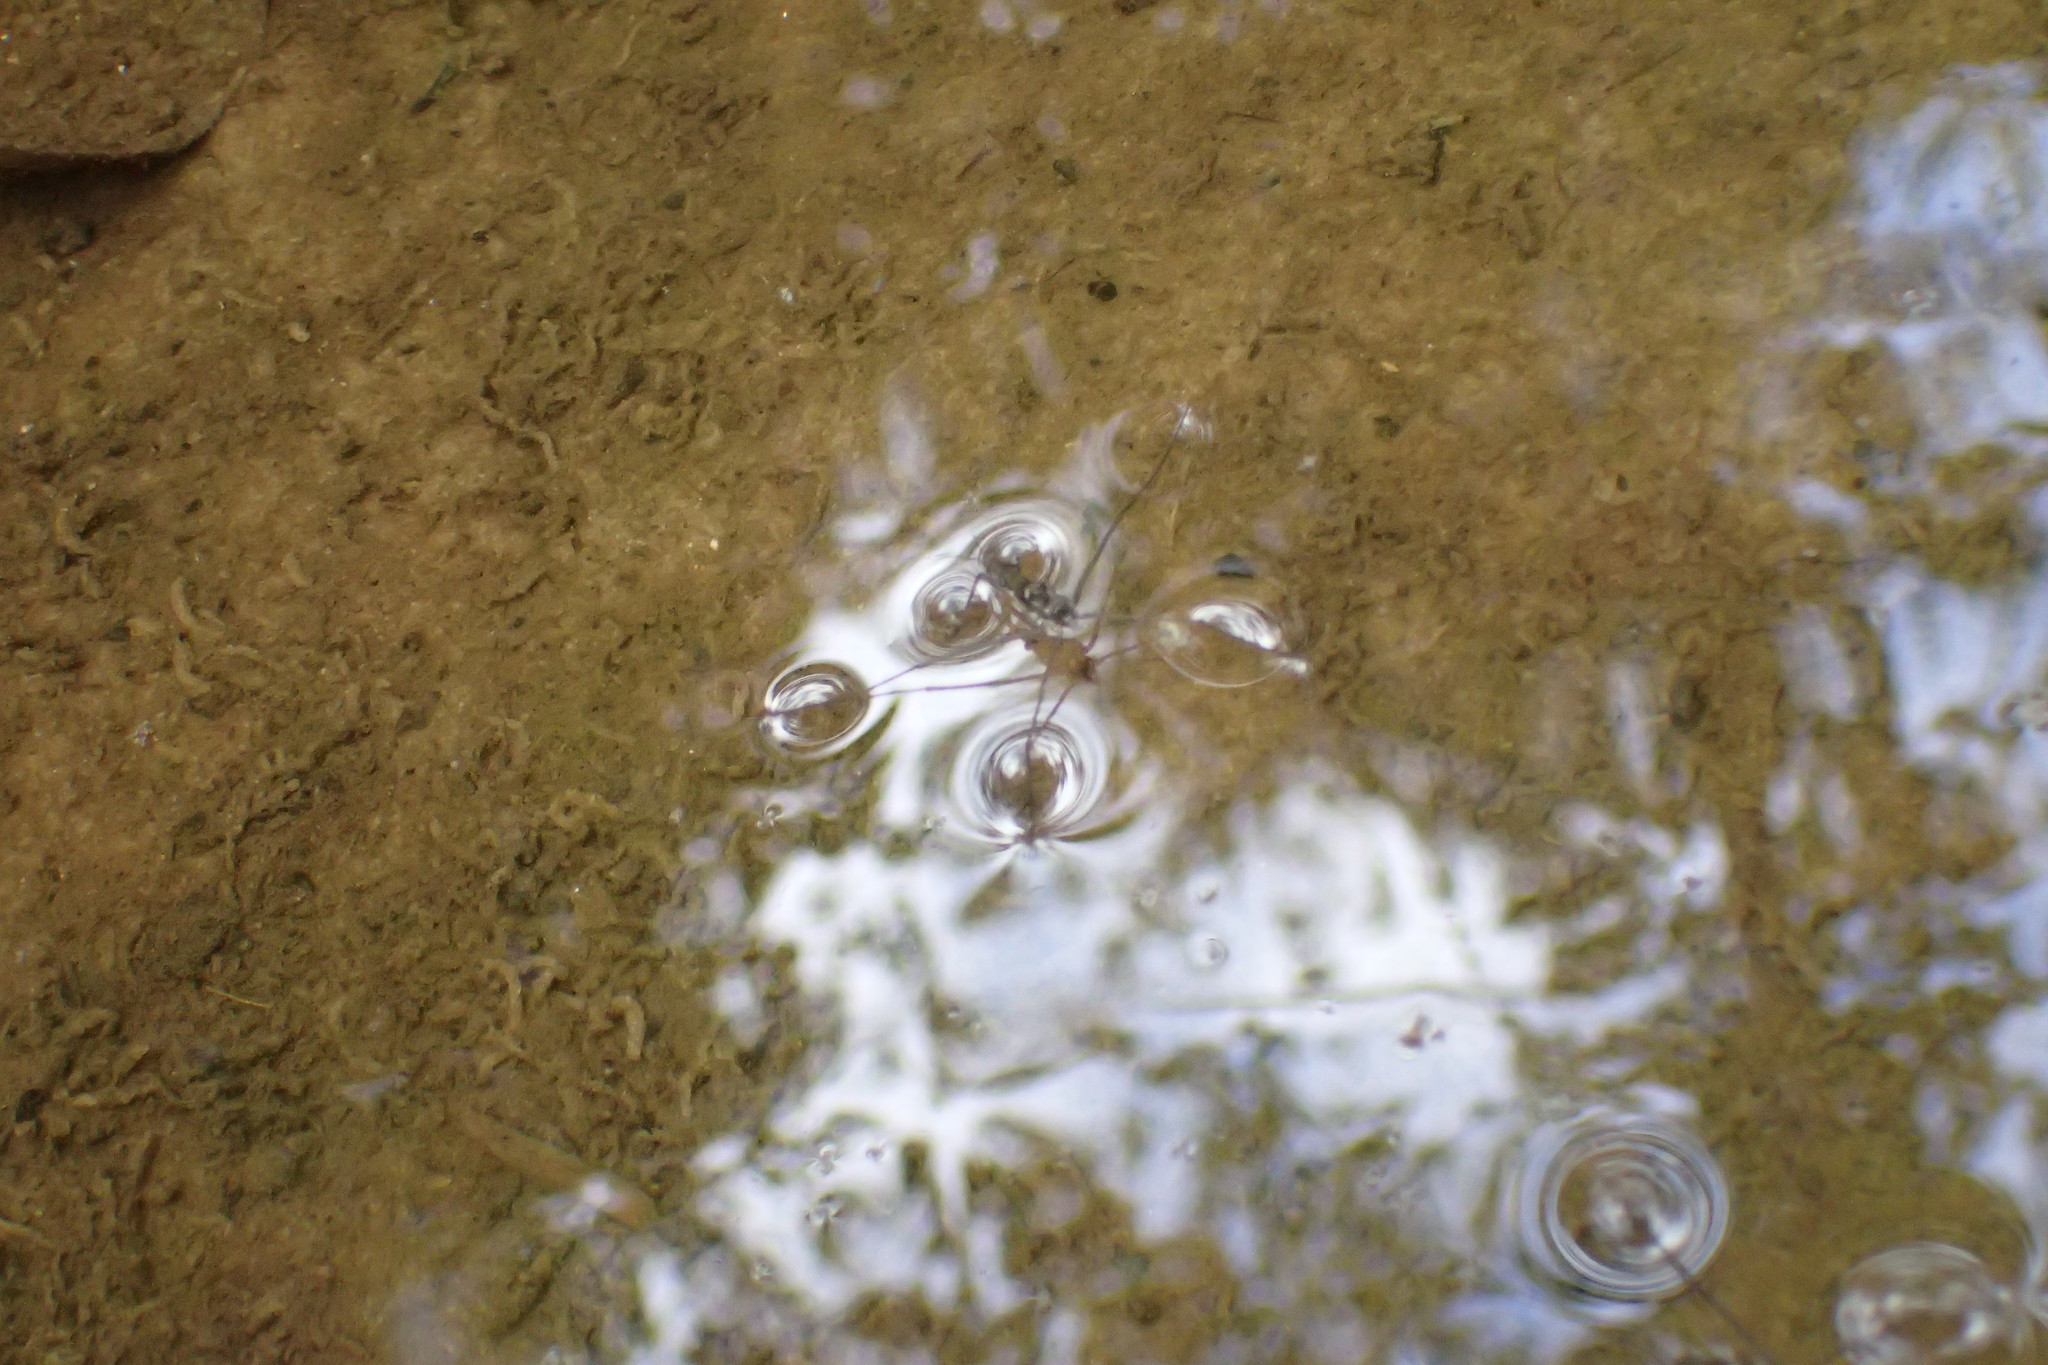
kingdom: Animalia
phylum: Arthropoda
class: Insecta
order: Hemiptera
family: Gerridae
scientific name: Gerridae
